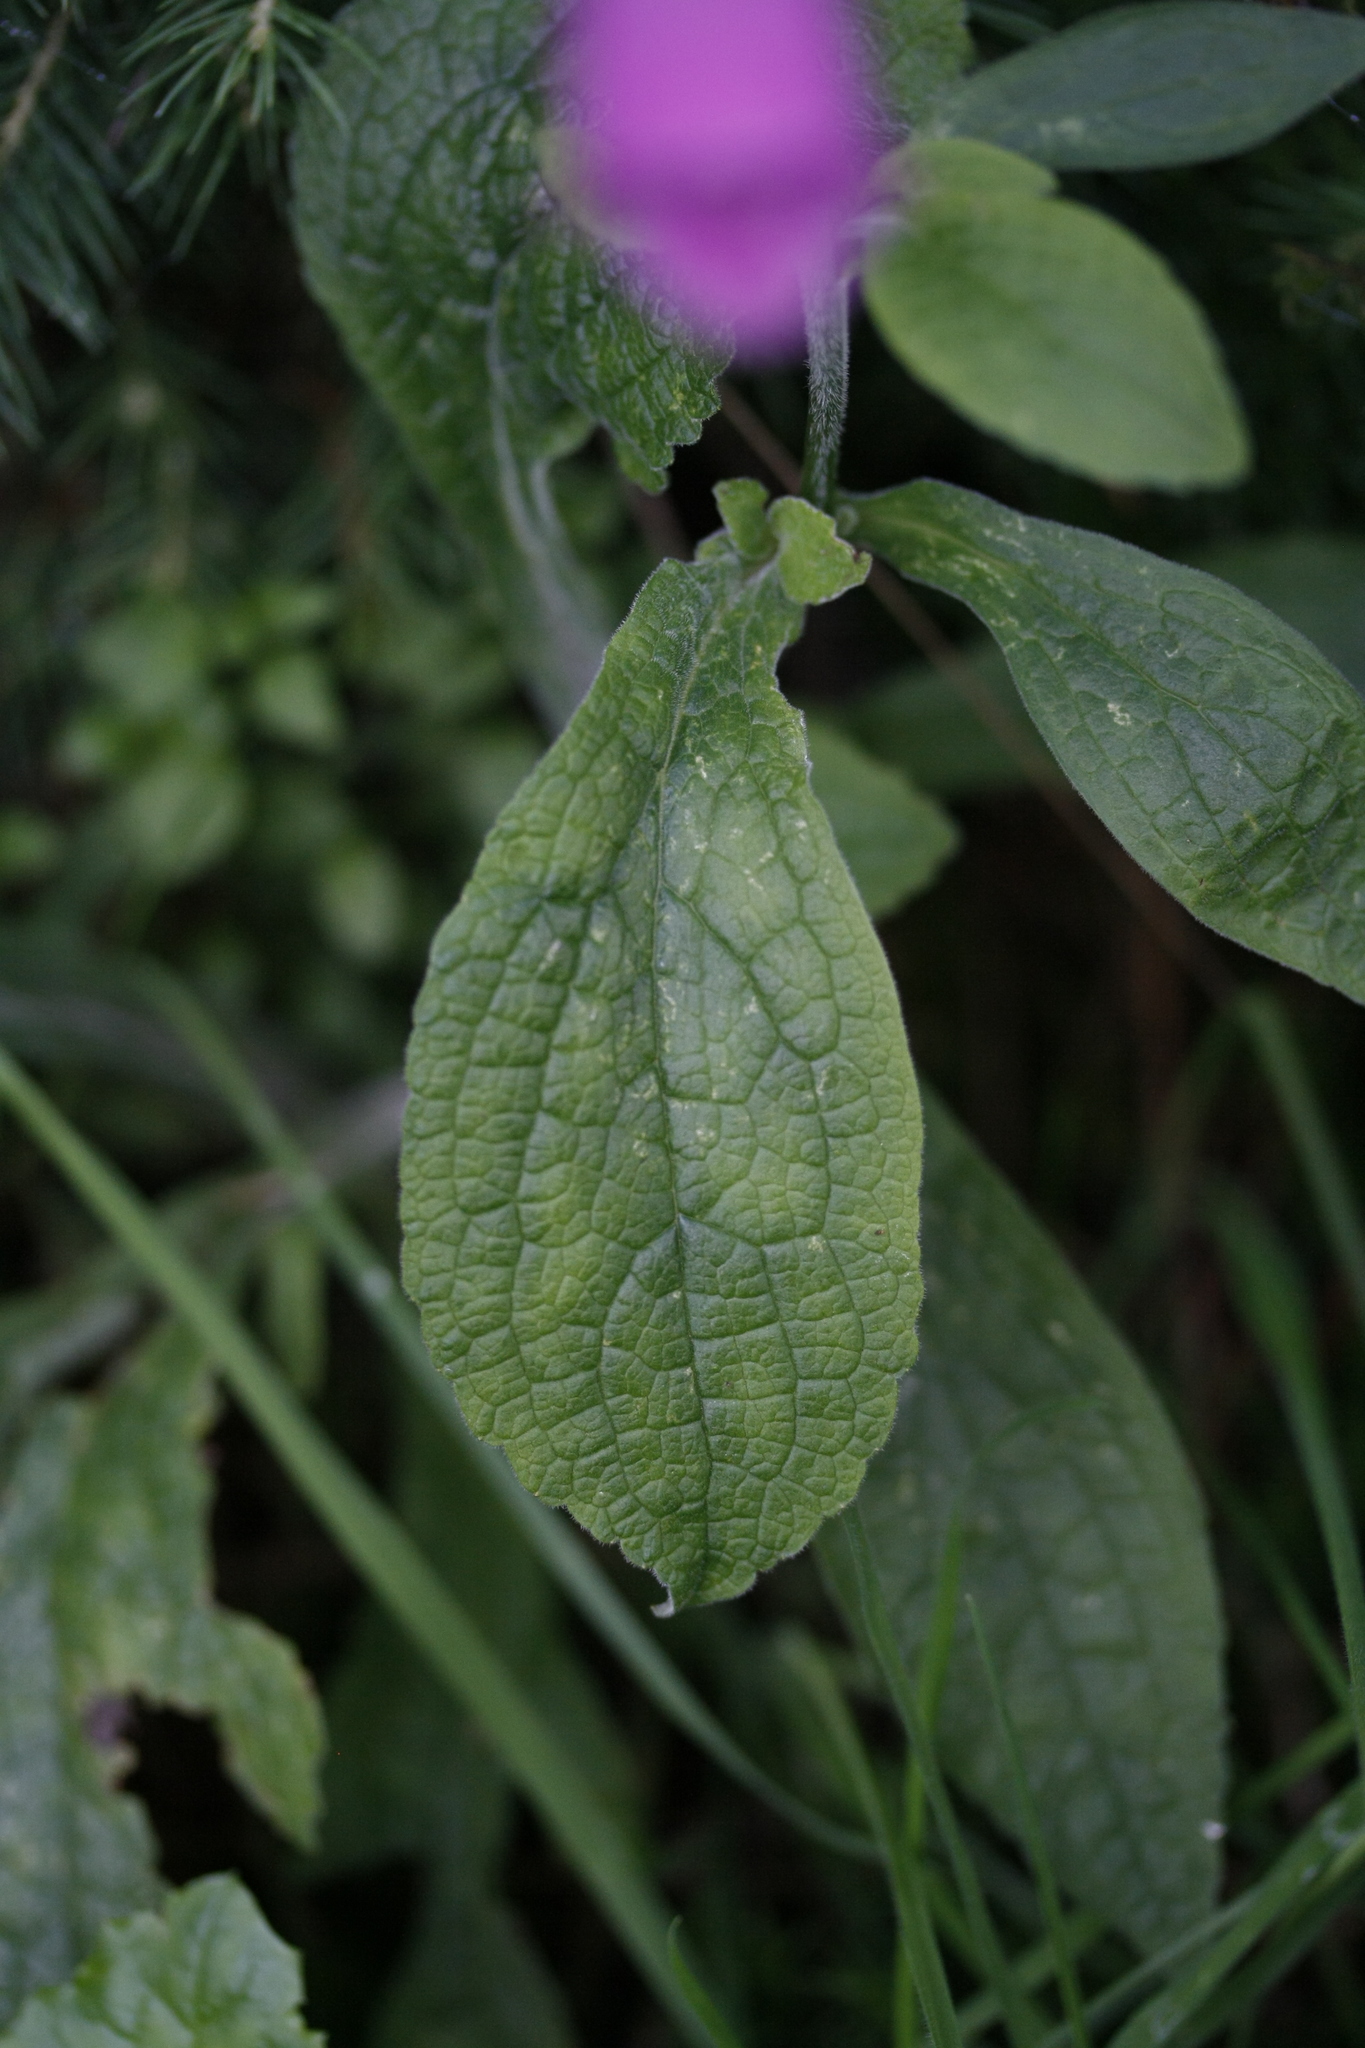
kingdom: Plantae
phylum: Tracheophyta
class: Magnoliopsida
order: Lamiales
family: Plantaginaceae
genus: Digitalis
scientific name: Digitalis purpurea
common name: Foxglove
